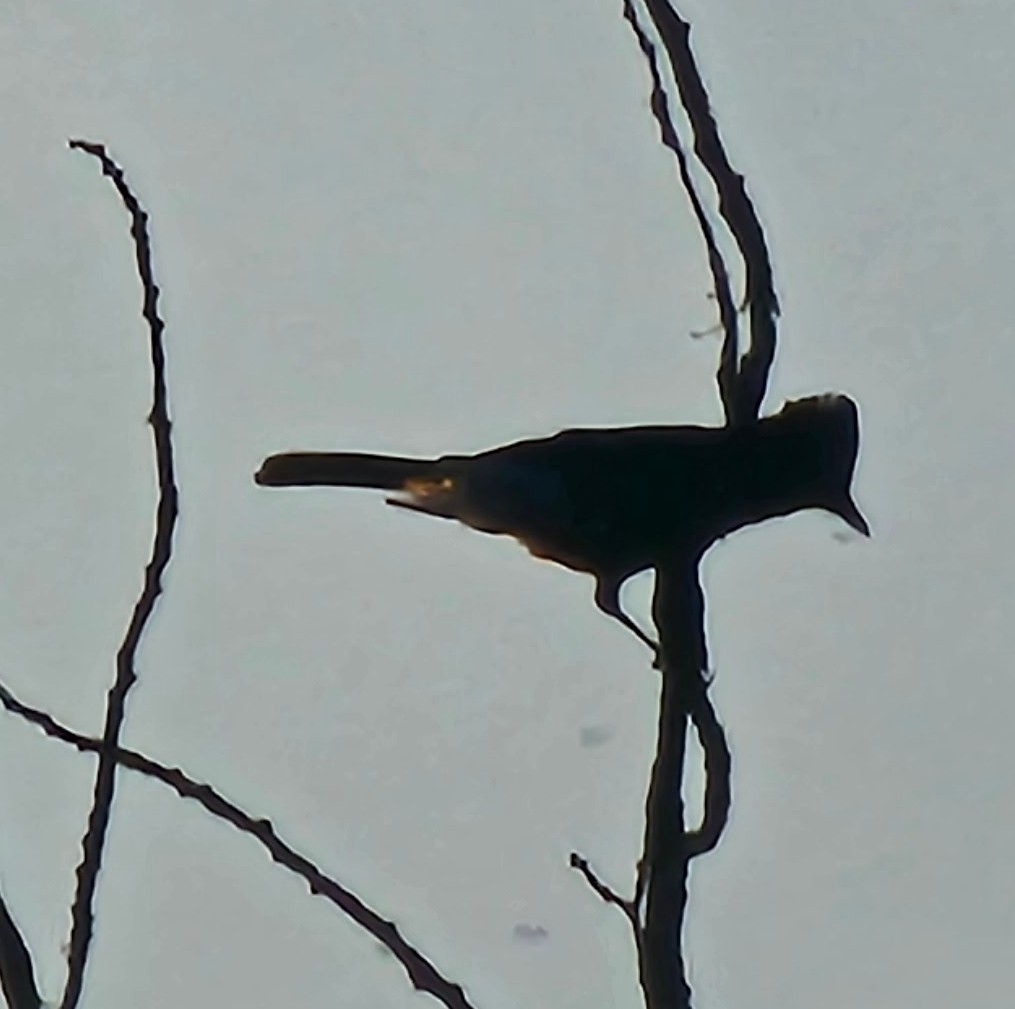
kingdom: Animalia
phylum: Chordata
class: Aves
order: Passeriformes
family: Corvidae
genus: Cyanocitta
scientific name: Cyanocitta cristata
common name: Blue jay
